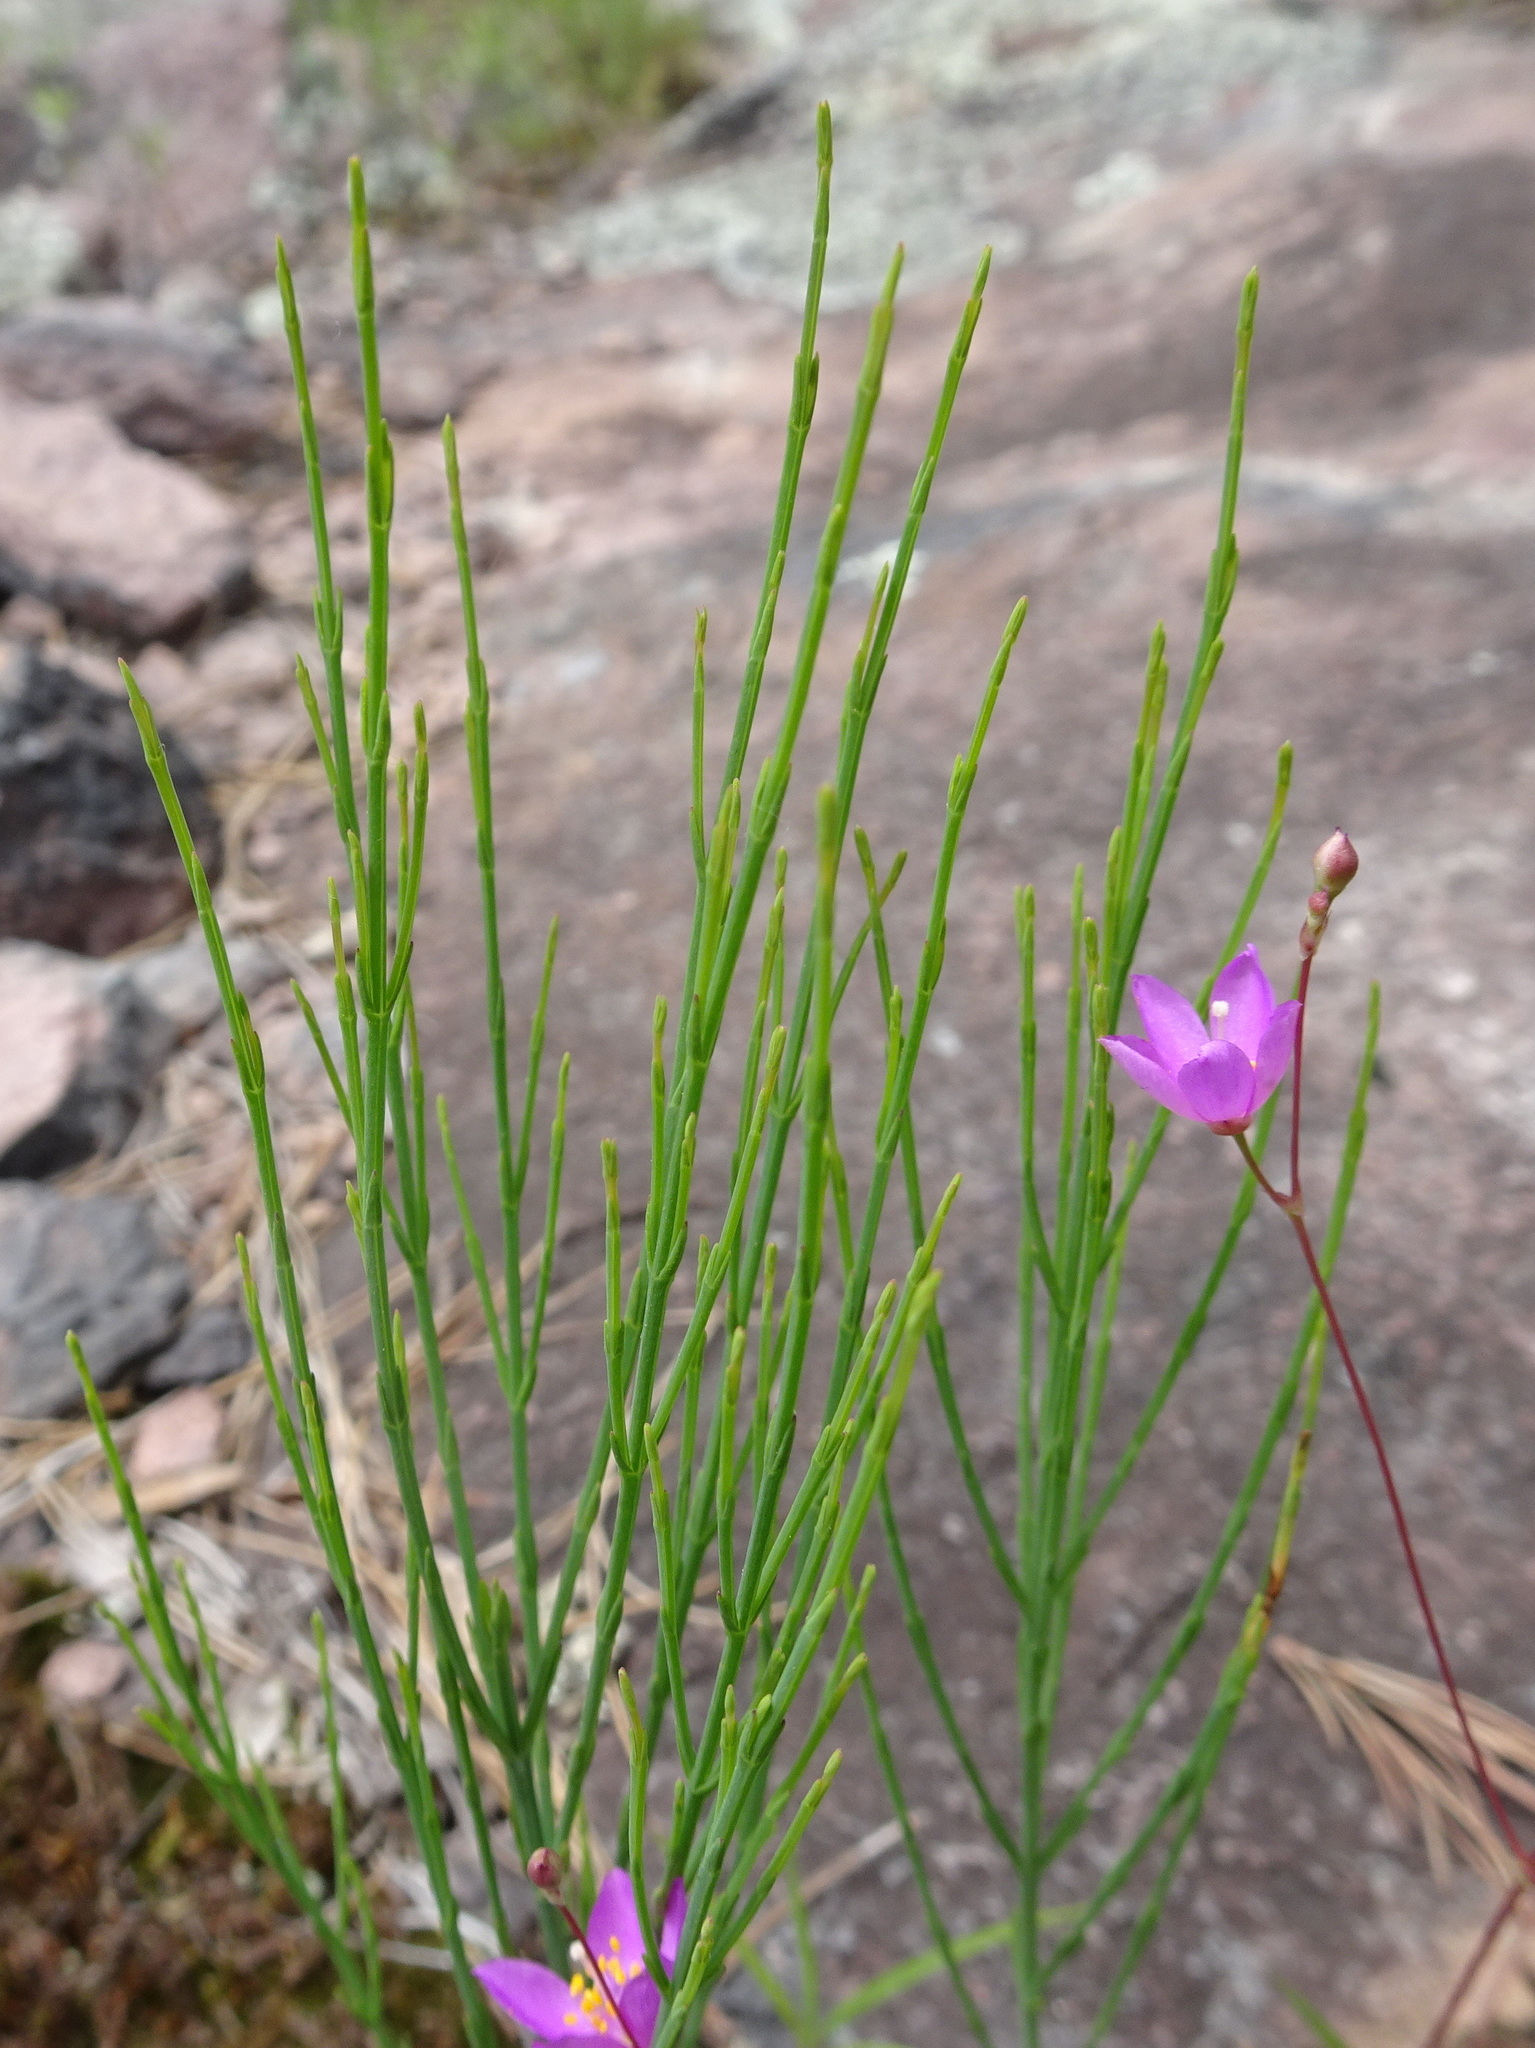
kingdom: Plantae
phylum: Tracheophyta
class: Magnoliopsida
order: Malpighiales
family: Hypericaceae
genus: Hypericum
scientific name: Hypericum gentianoides
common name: Gentian-leaved st. john's-wort
